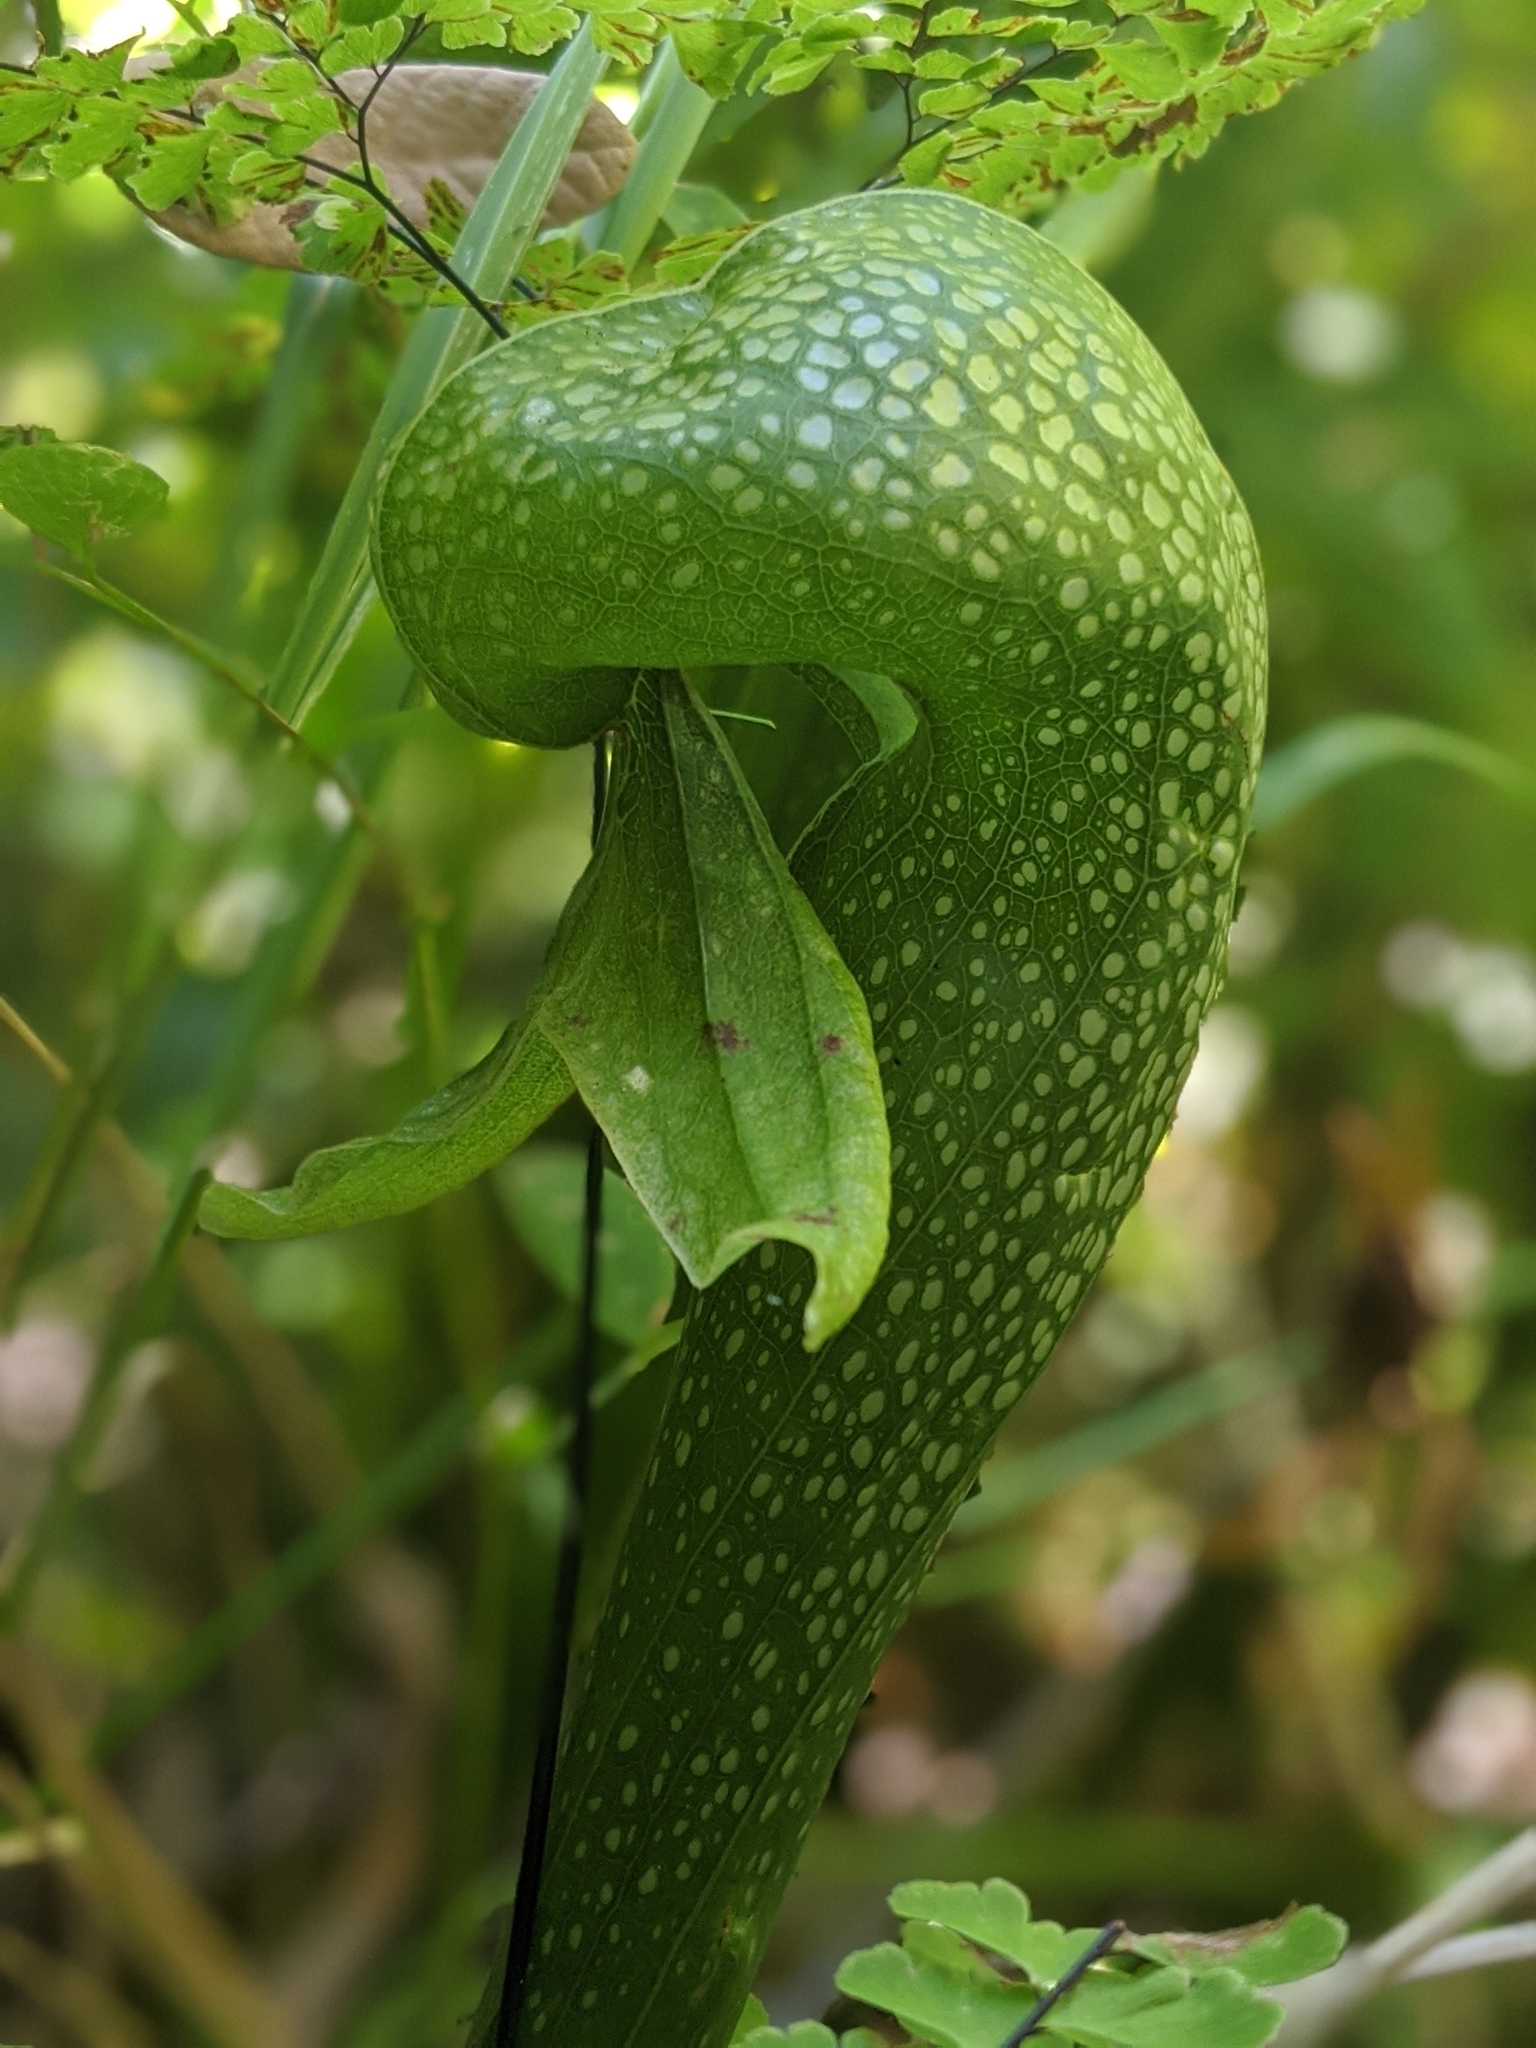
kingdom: Plantae
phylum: Tracheophyta
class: Magnoliopsida
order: Ericales
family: Sarraceniaceae
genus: Darlingtonia
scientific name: Darlingtonia californica
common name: California pitcher plant
